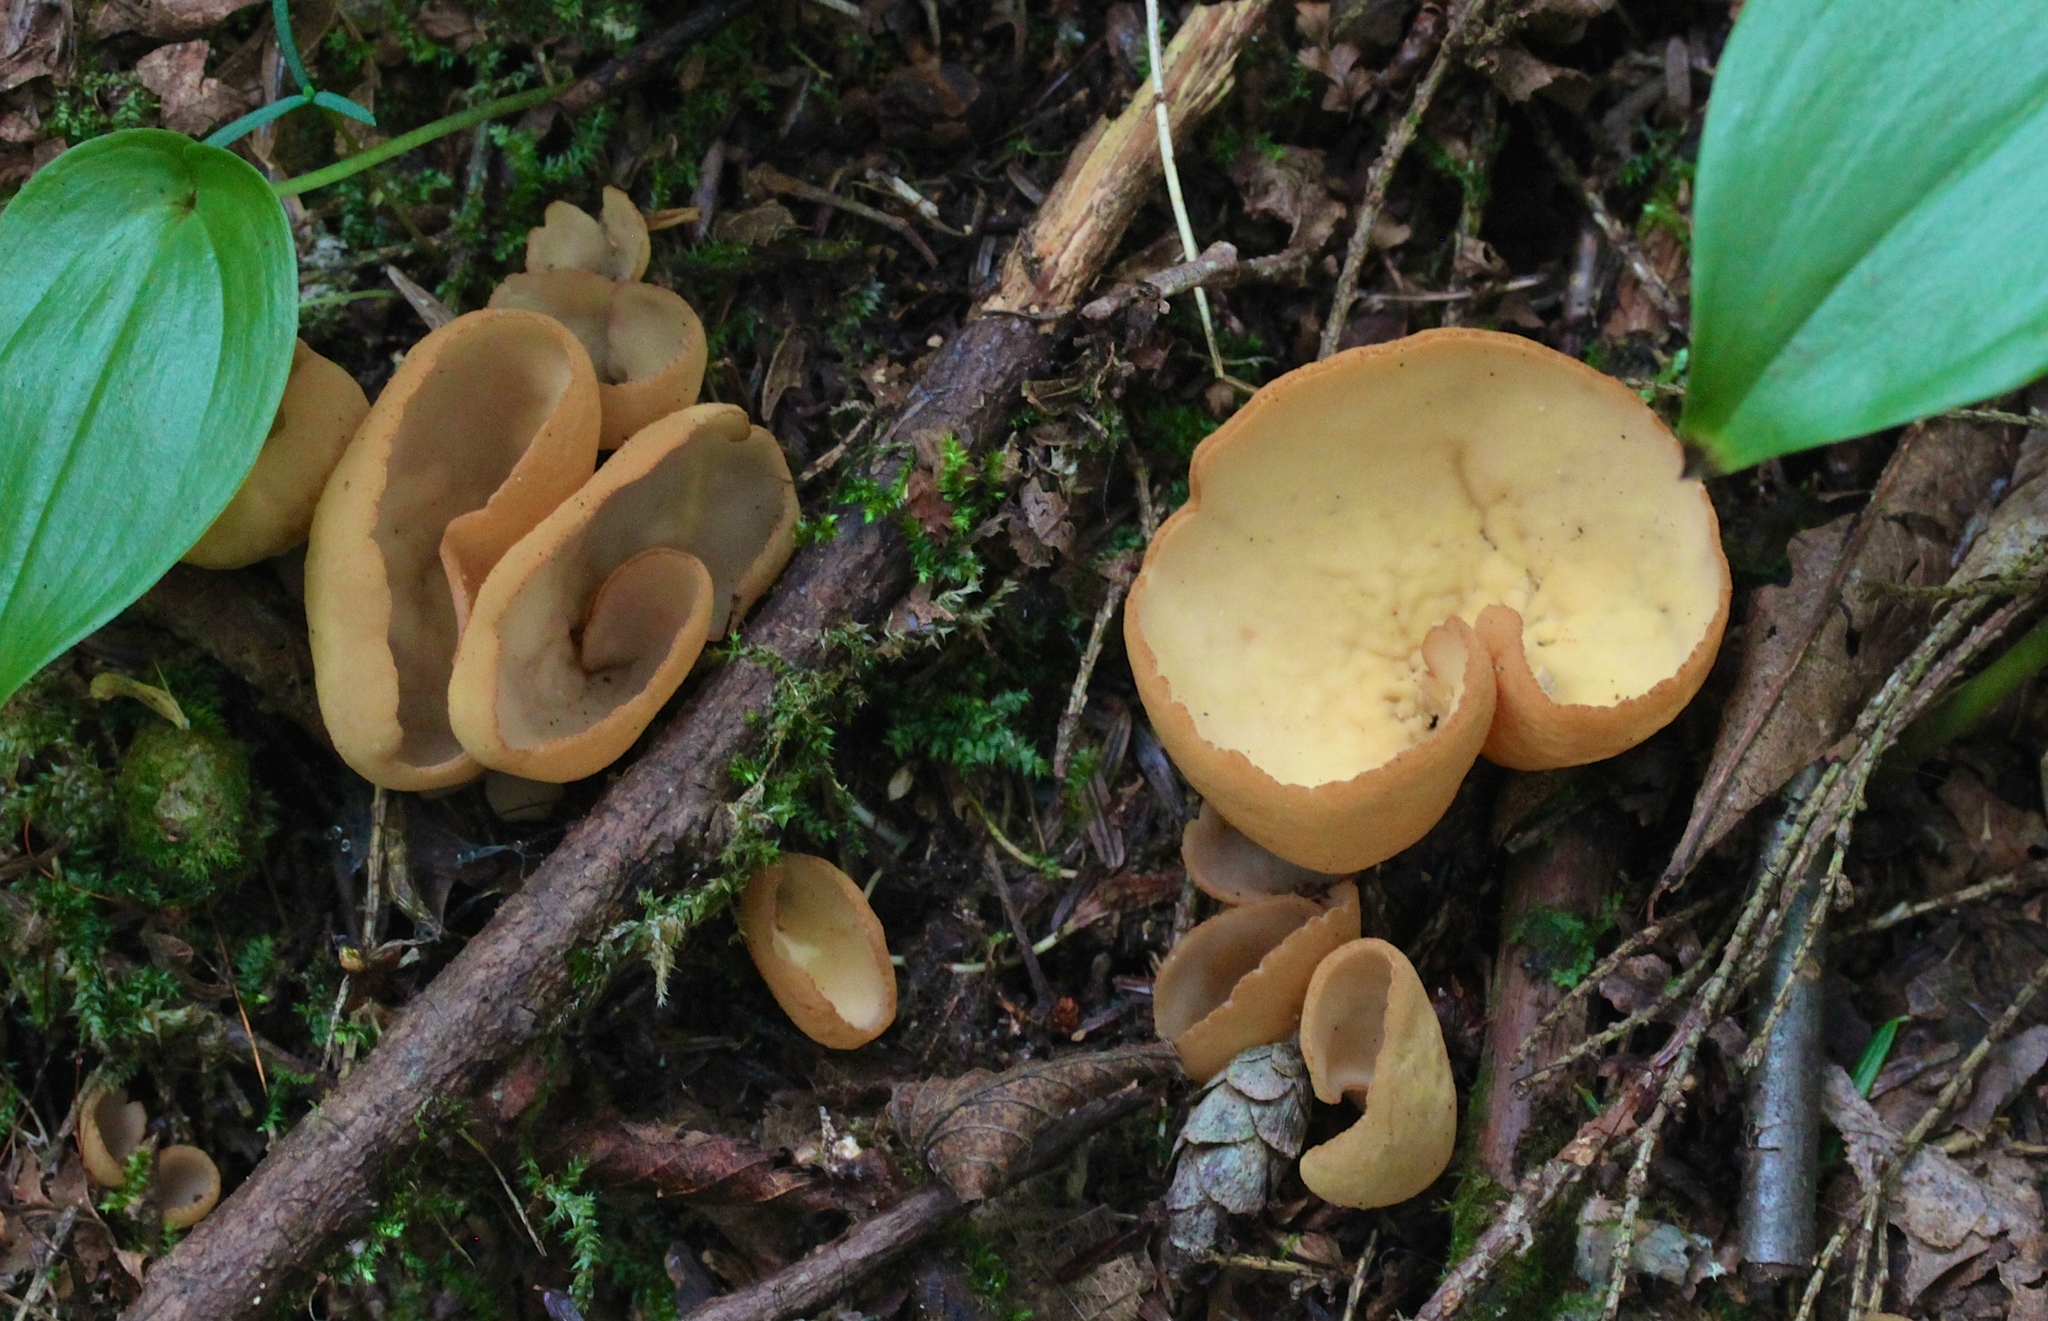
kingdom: Fungi
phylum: Ascomycota
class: Pezizomycetes
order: Pezizales
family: Otideaceae
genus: Otidea
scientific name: Otidea onotica
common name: Hare's ear
